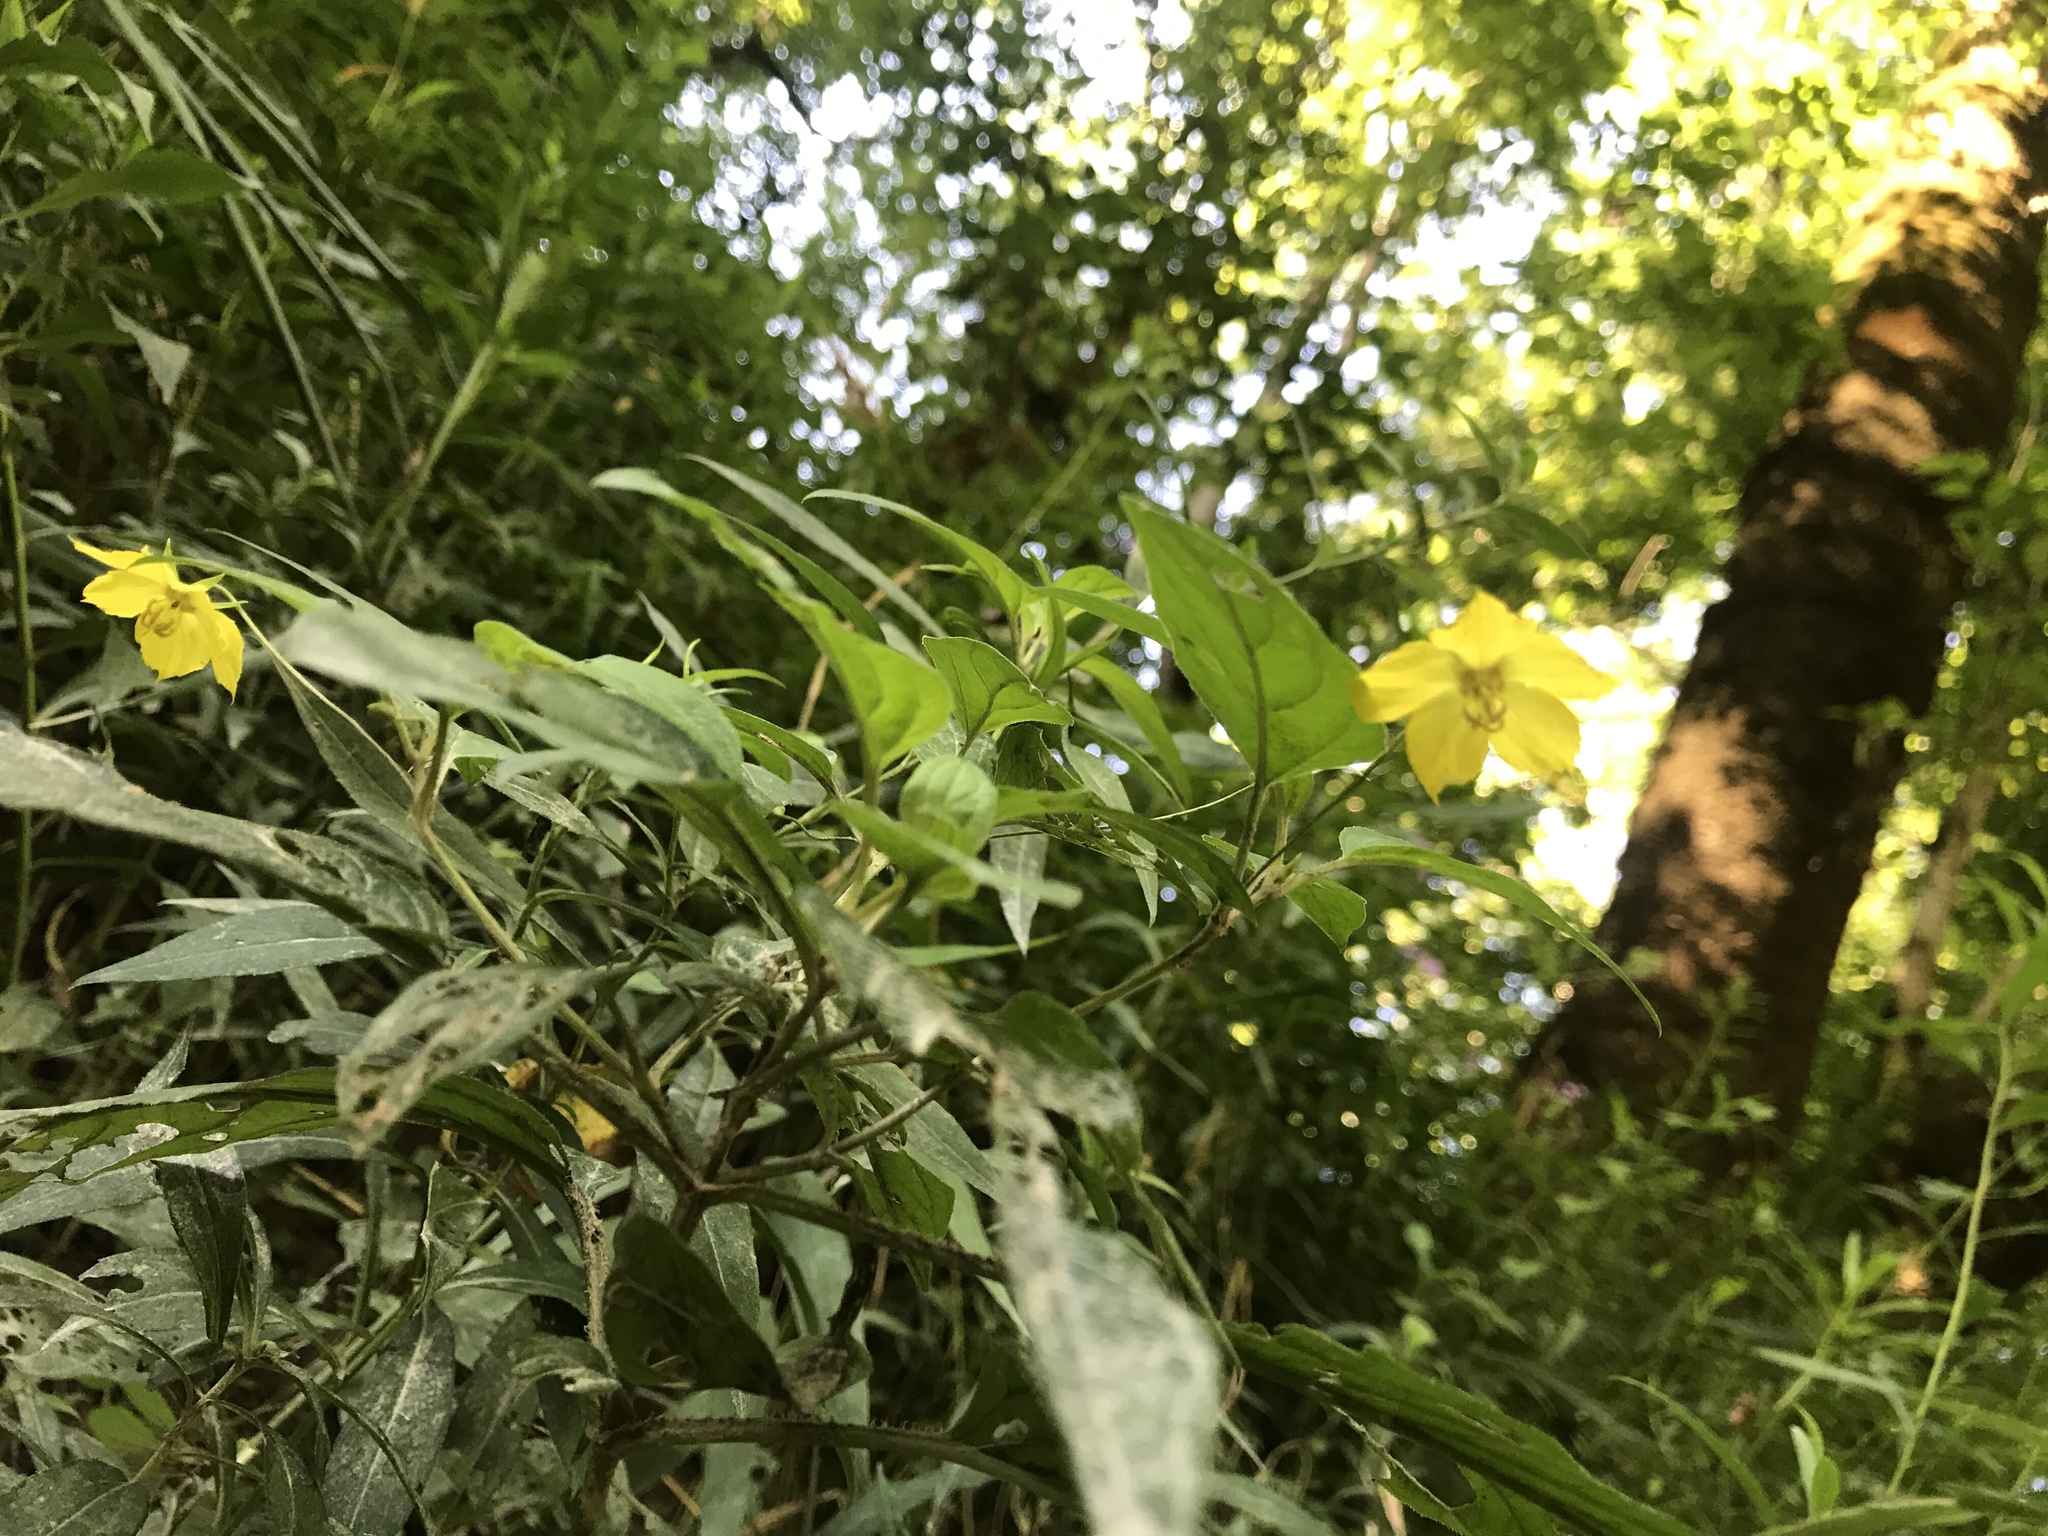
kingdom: Plantae
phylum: Tracheophyta
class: Magnoliopsida
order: Ericales
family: Primulaceae
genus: Lysimachia
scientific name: Lysimachia ciliata
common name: Fringed loosestrife
